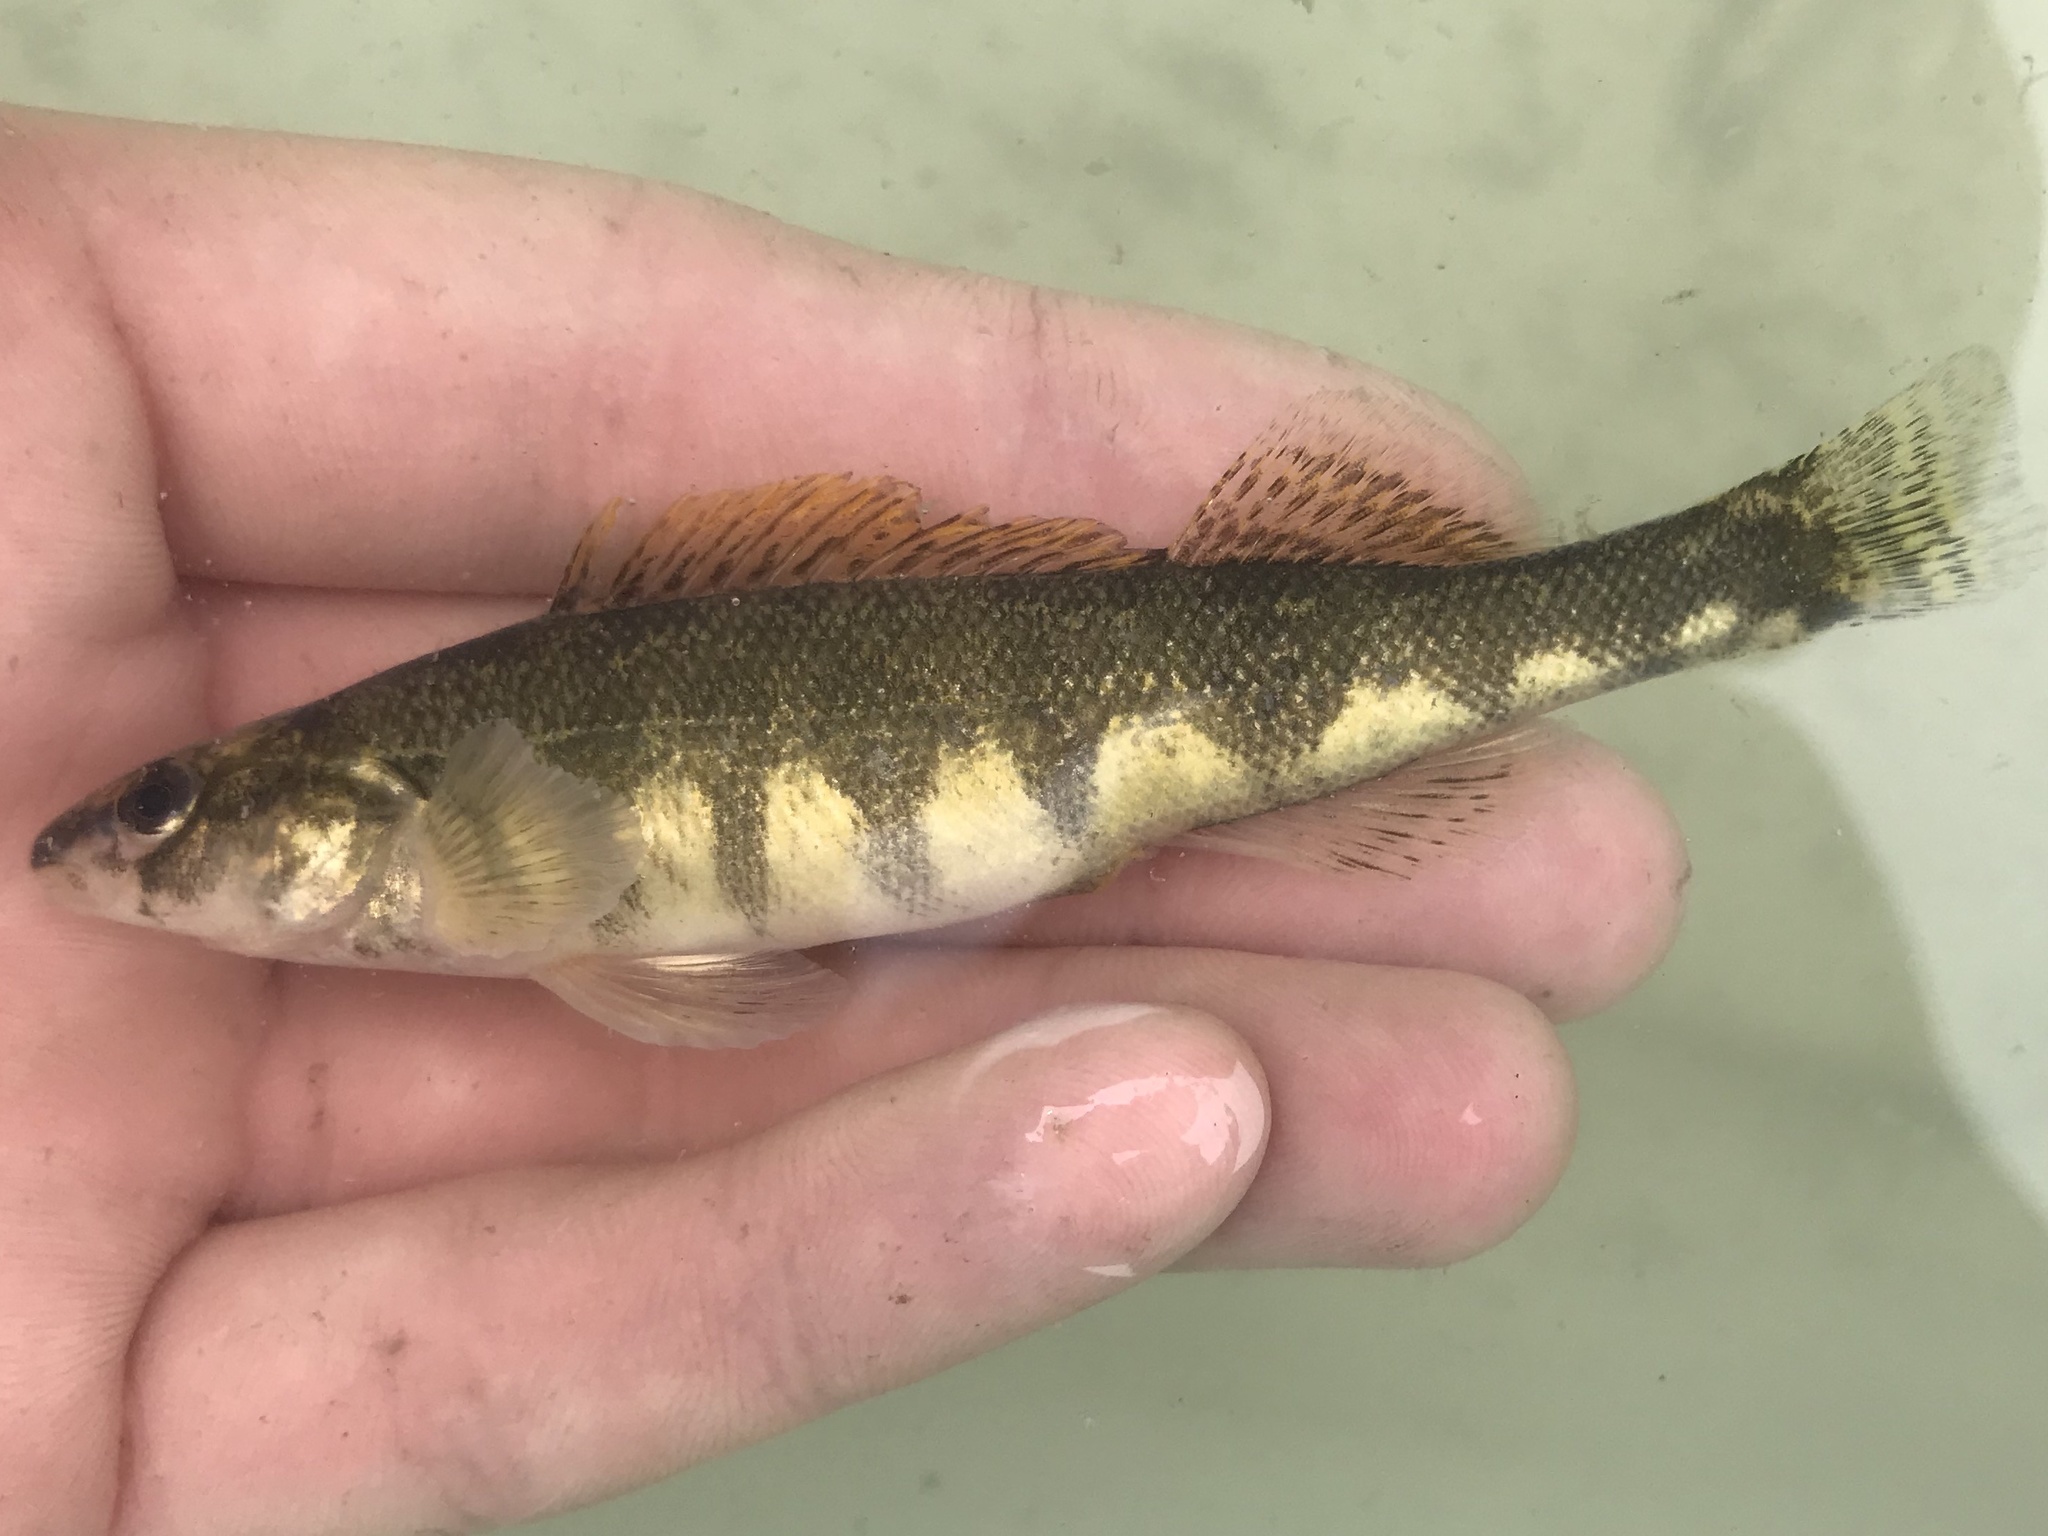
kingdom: Animalia
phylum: Chordata
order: Perciformes
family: Percidae
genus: Percina
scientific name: Percina apristis
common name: Guadalupe darter
